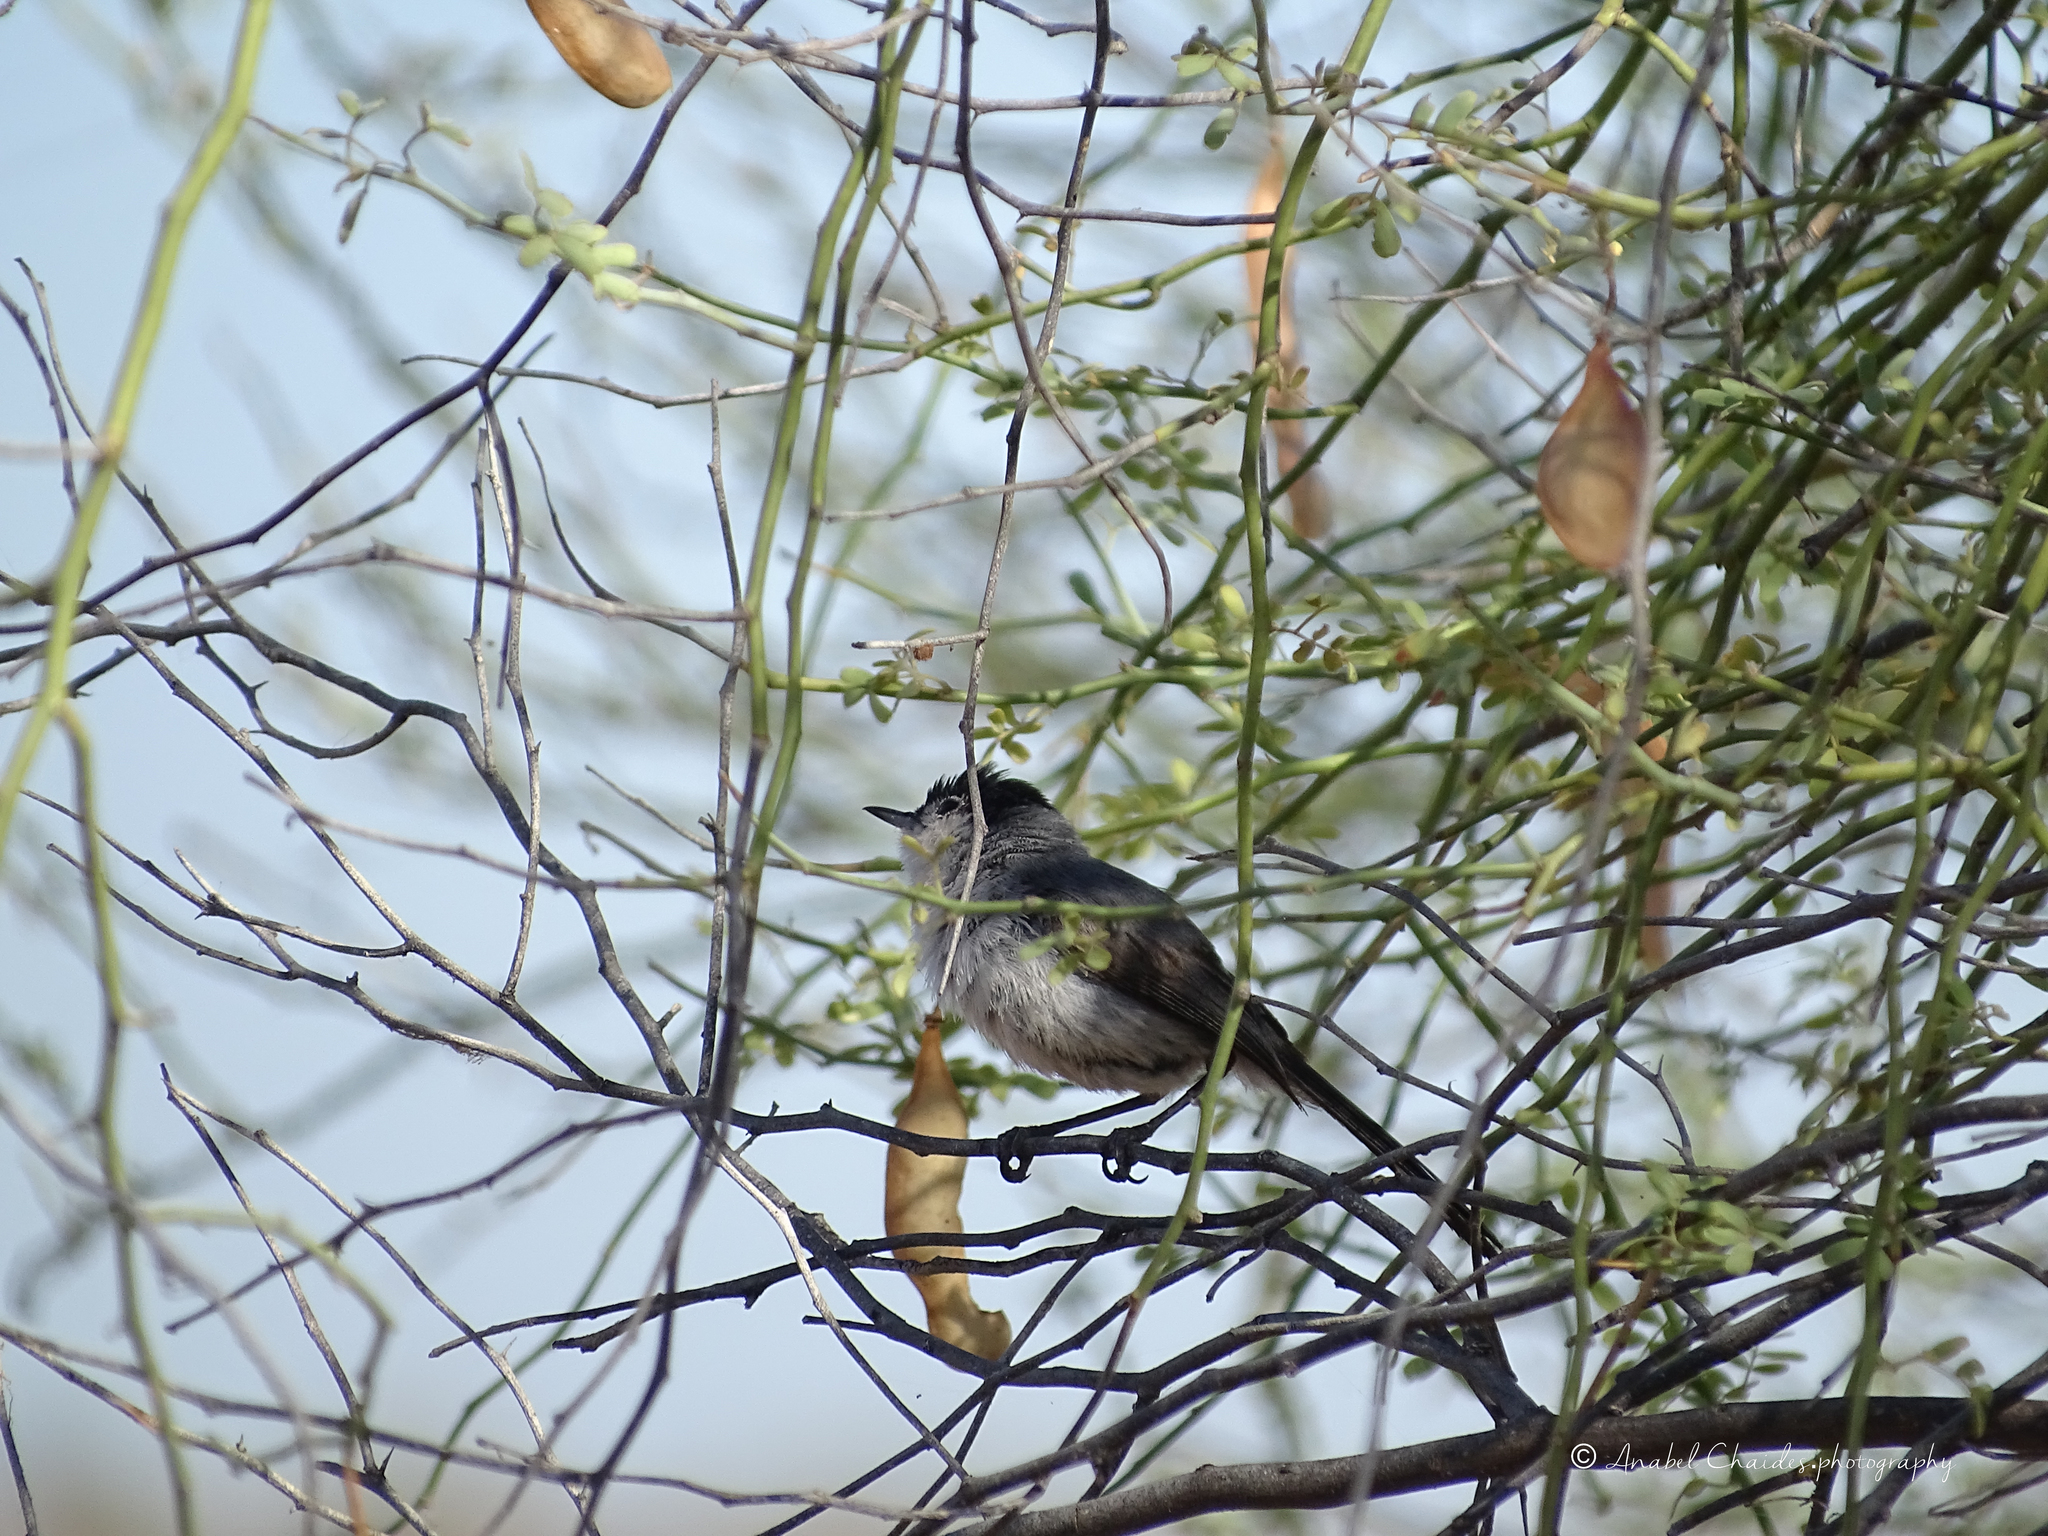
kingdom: Animalia
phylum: Chordata
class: Aves
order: Passeriformes
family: Polioptilidae
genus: Polioptila
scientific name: Polioptila melanura
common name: Black-tailed gnatcatcher
